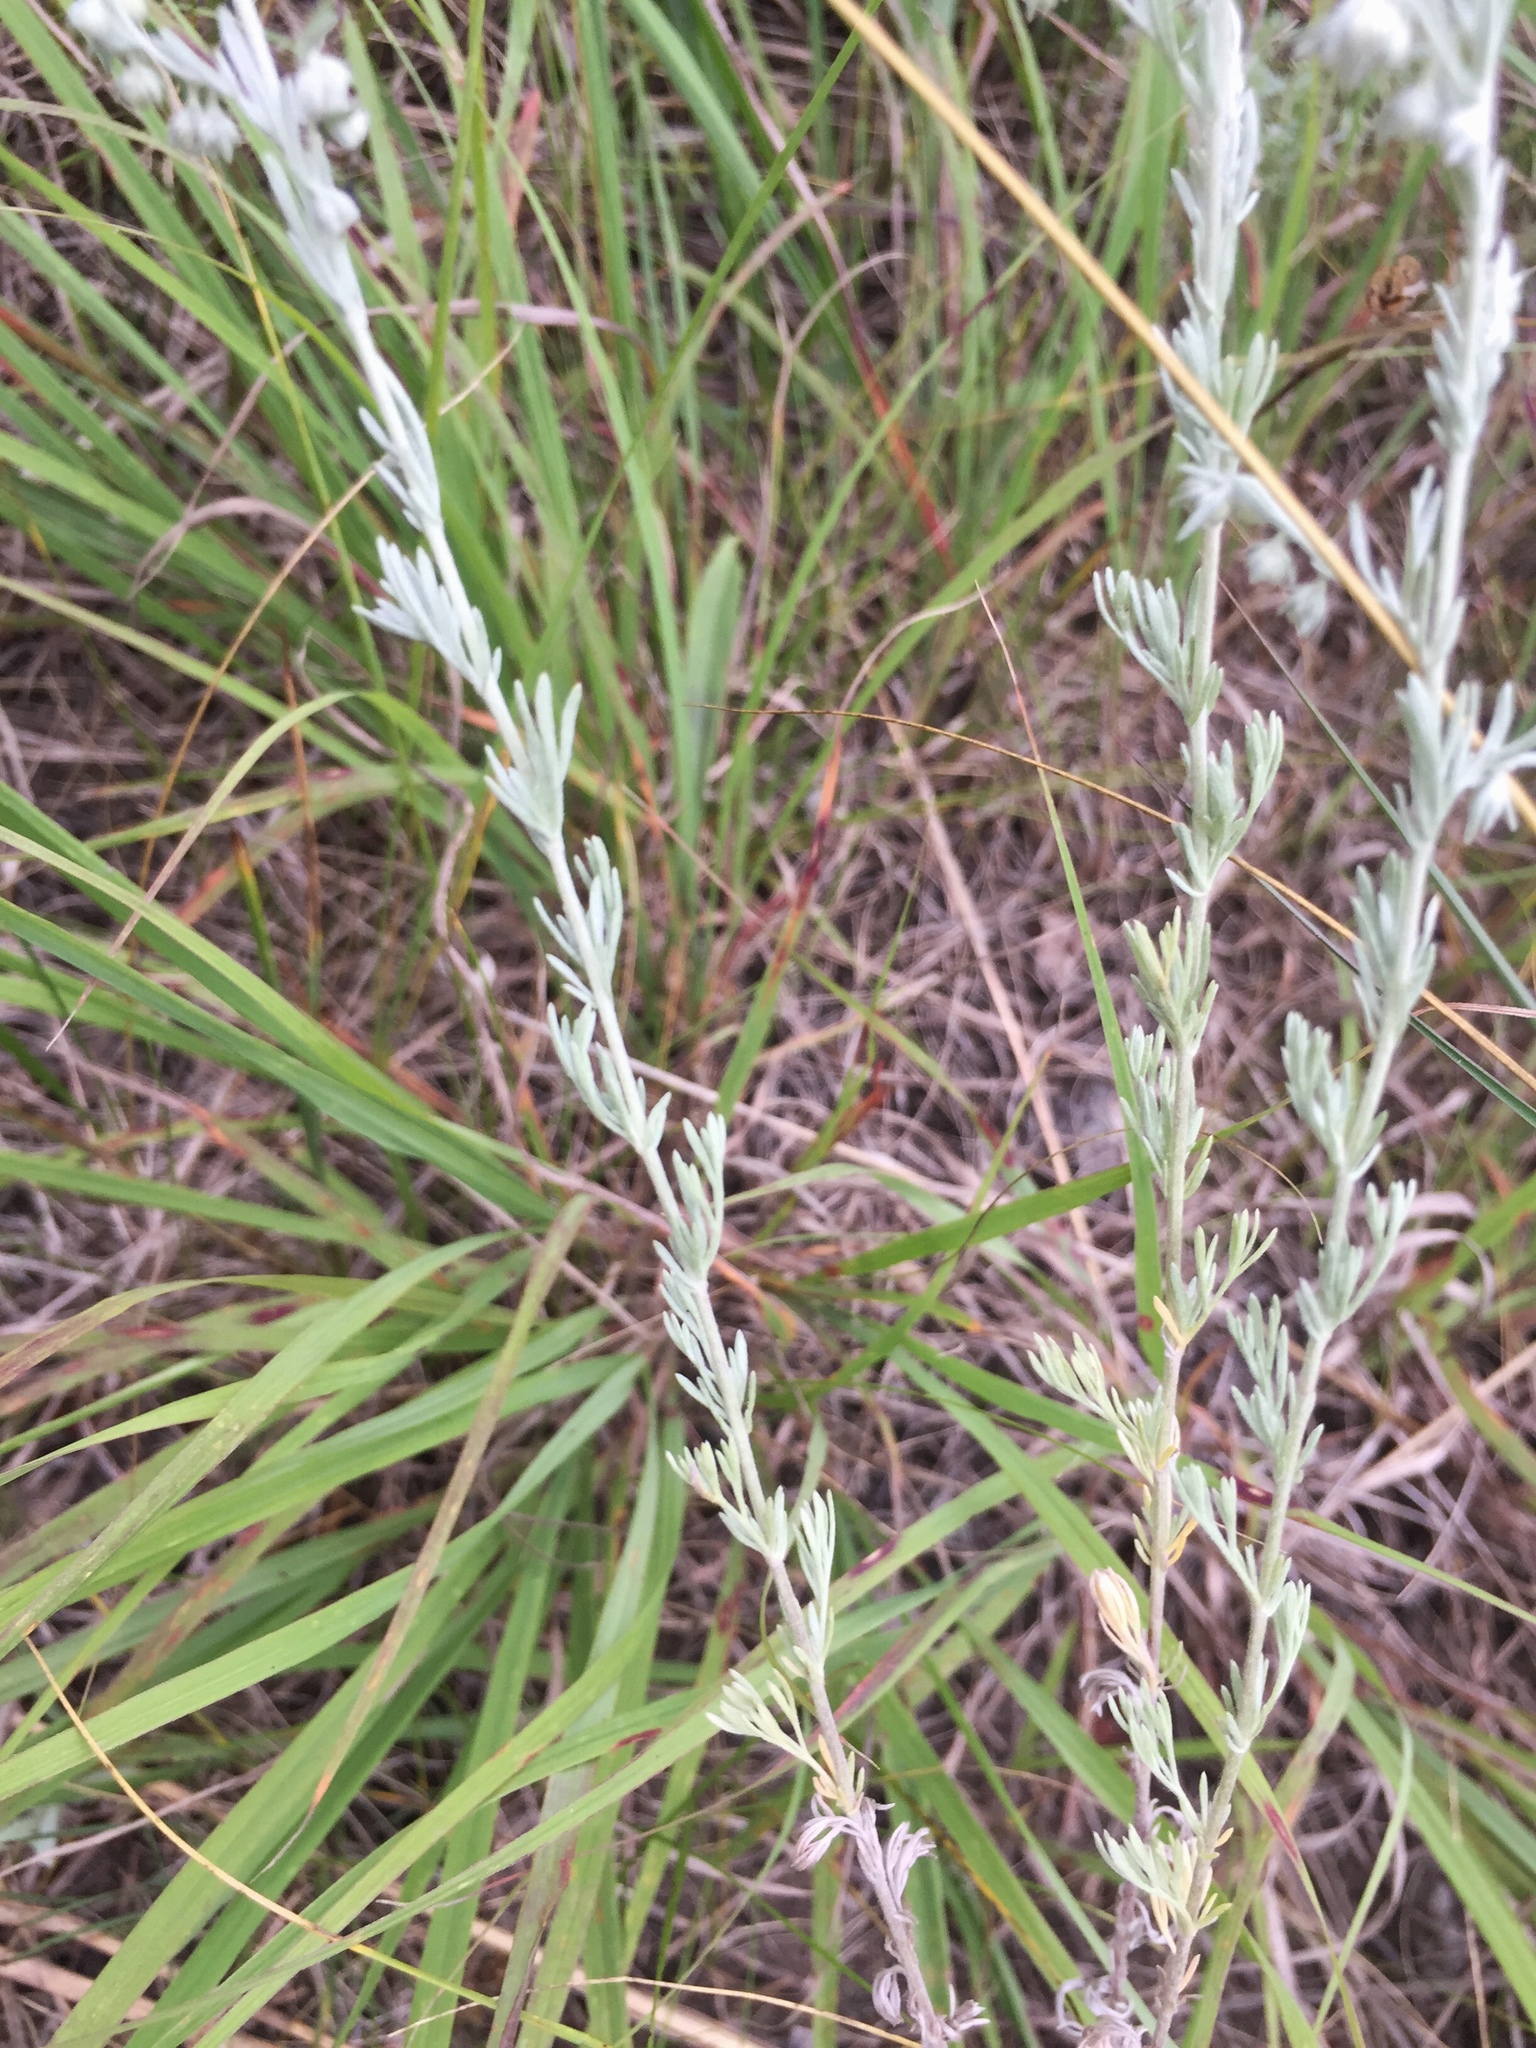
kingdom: Plantae
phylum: Tracheophyta
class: Magnoliopsida
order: Asterales
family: Asteraceae
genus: Artemisia
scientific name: Artemisia frigida
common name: Prairie sagewort
